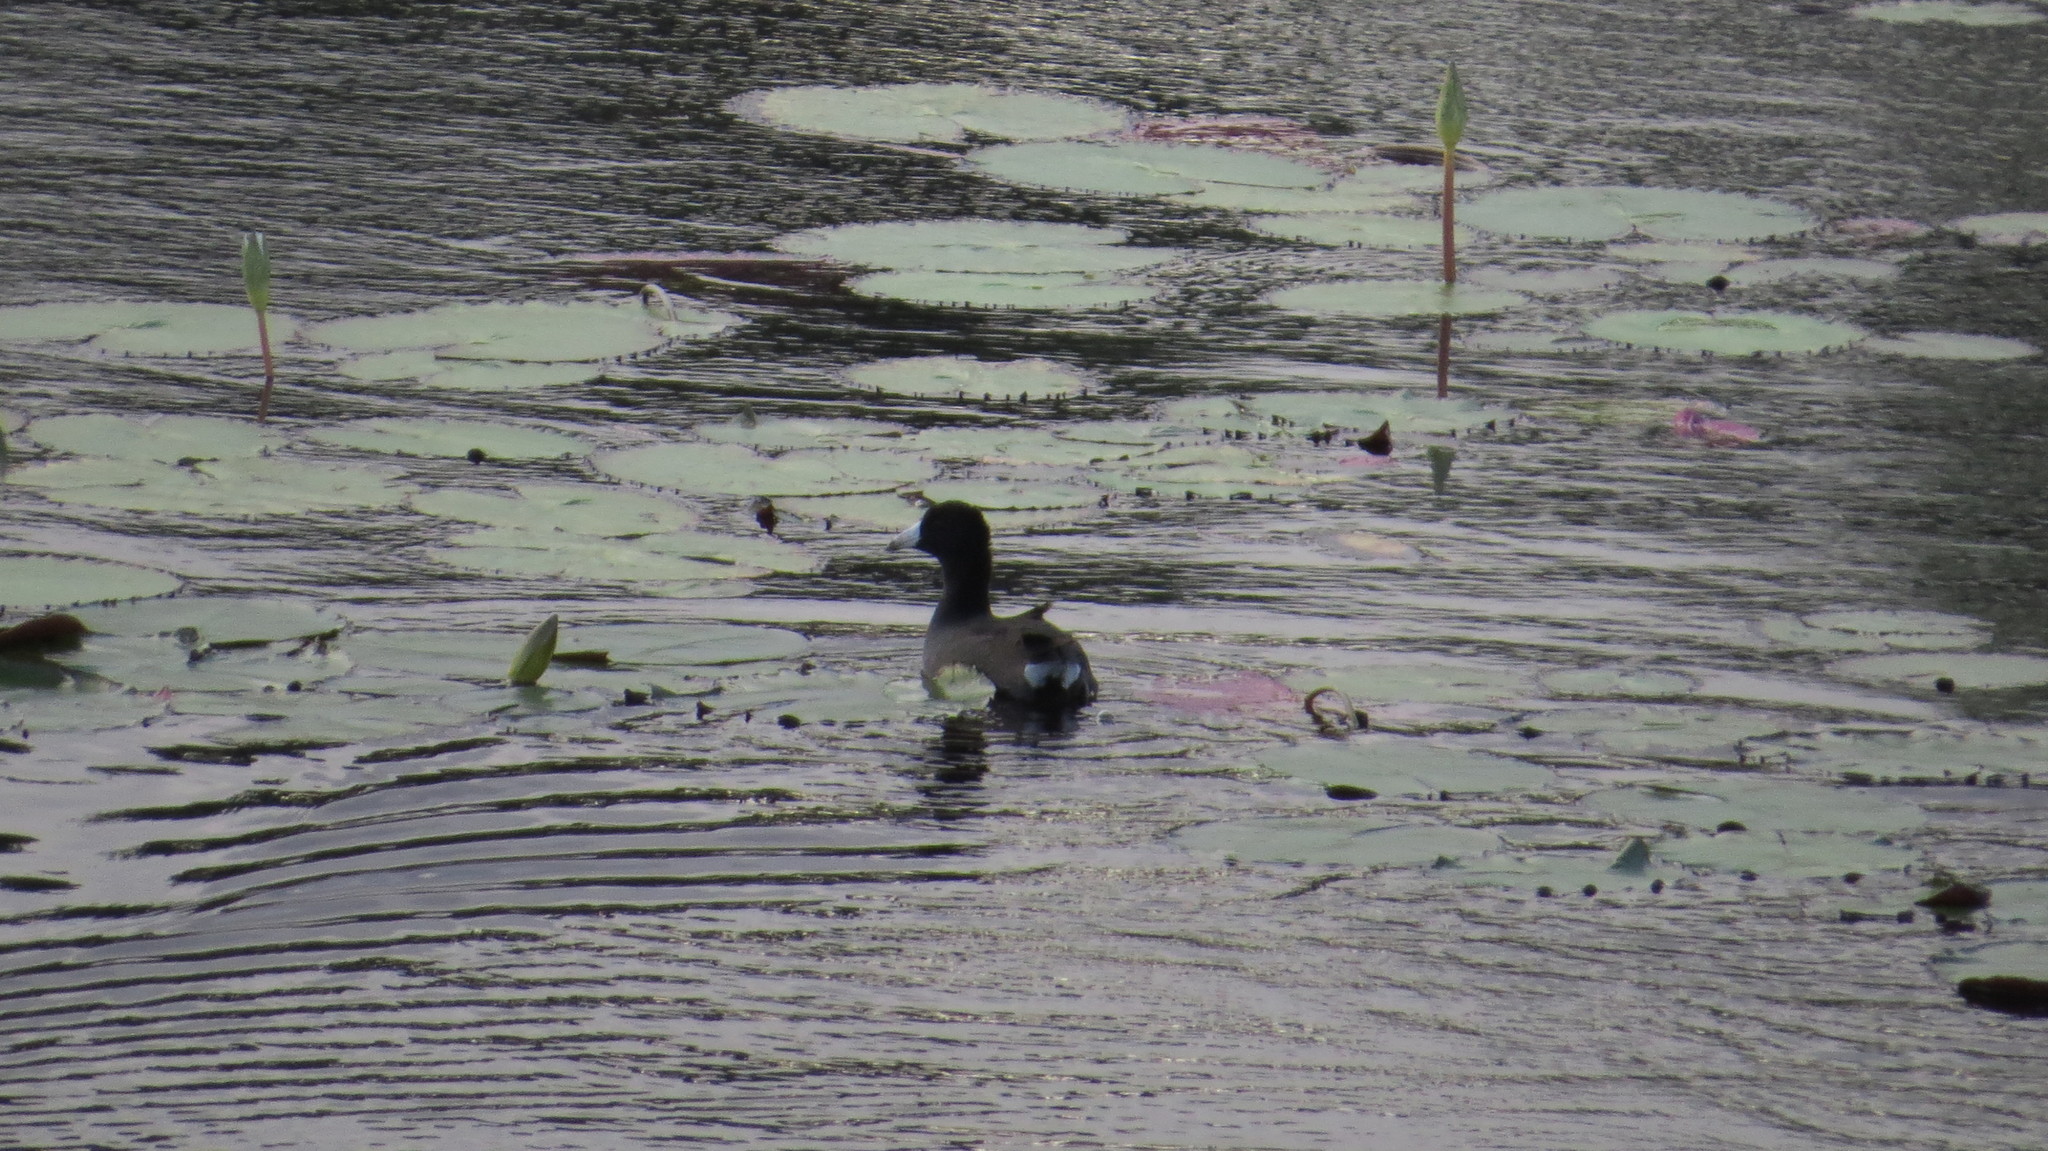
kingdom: Animalia
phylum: Chordata
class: Aves
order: Gruiformes
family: Rallidae
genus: Fulica
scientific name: Fulica americana
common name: American coot
